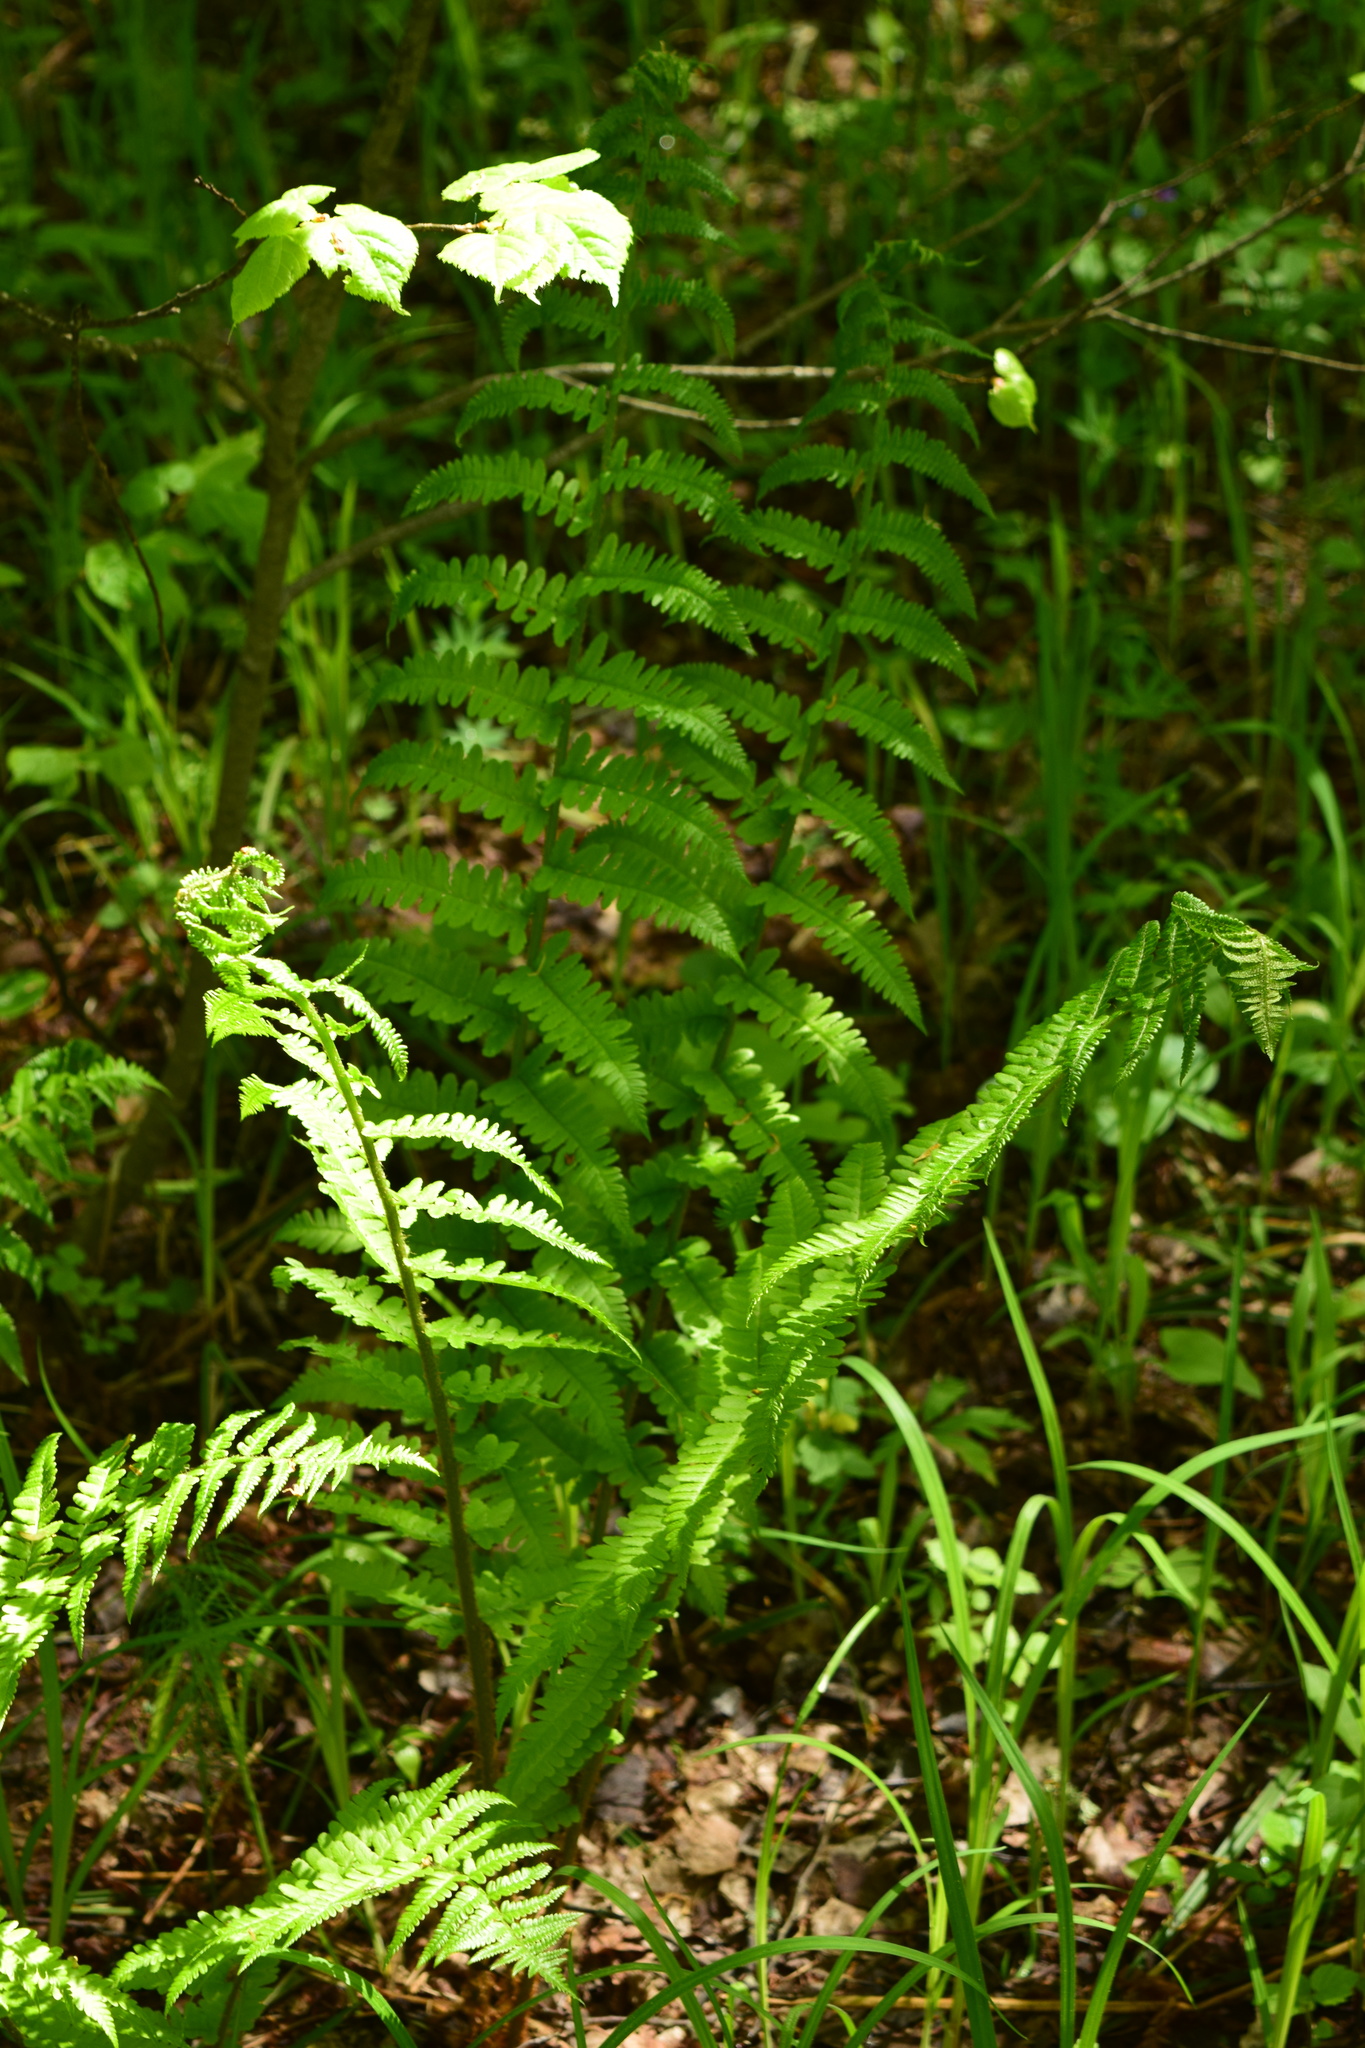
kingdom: Plantae
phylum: Tracheophyta
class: Polypodiopsida
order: Polypodiales
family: Dryopteridaceae
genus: Dryopteris
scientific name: Dryopteris filix-mas
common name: Male fern
